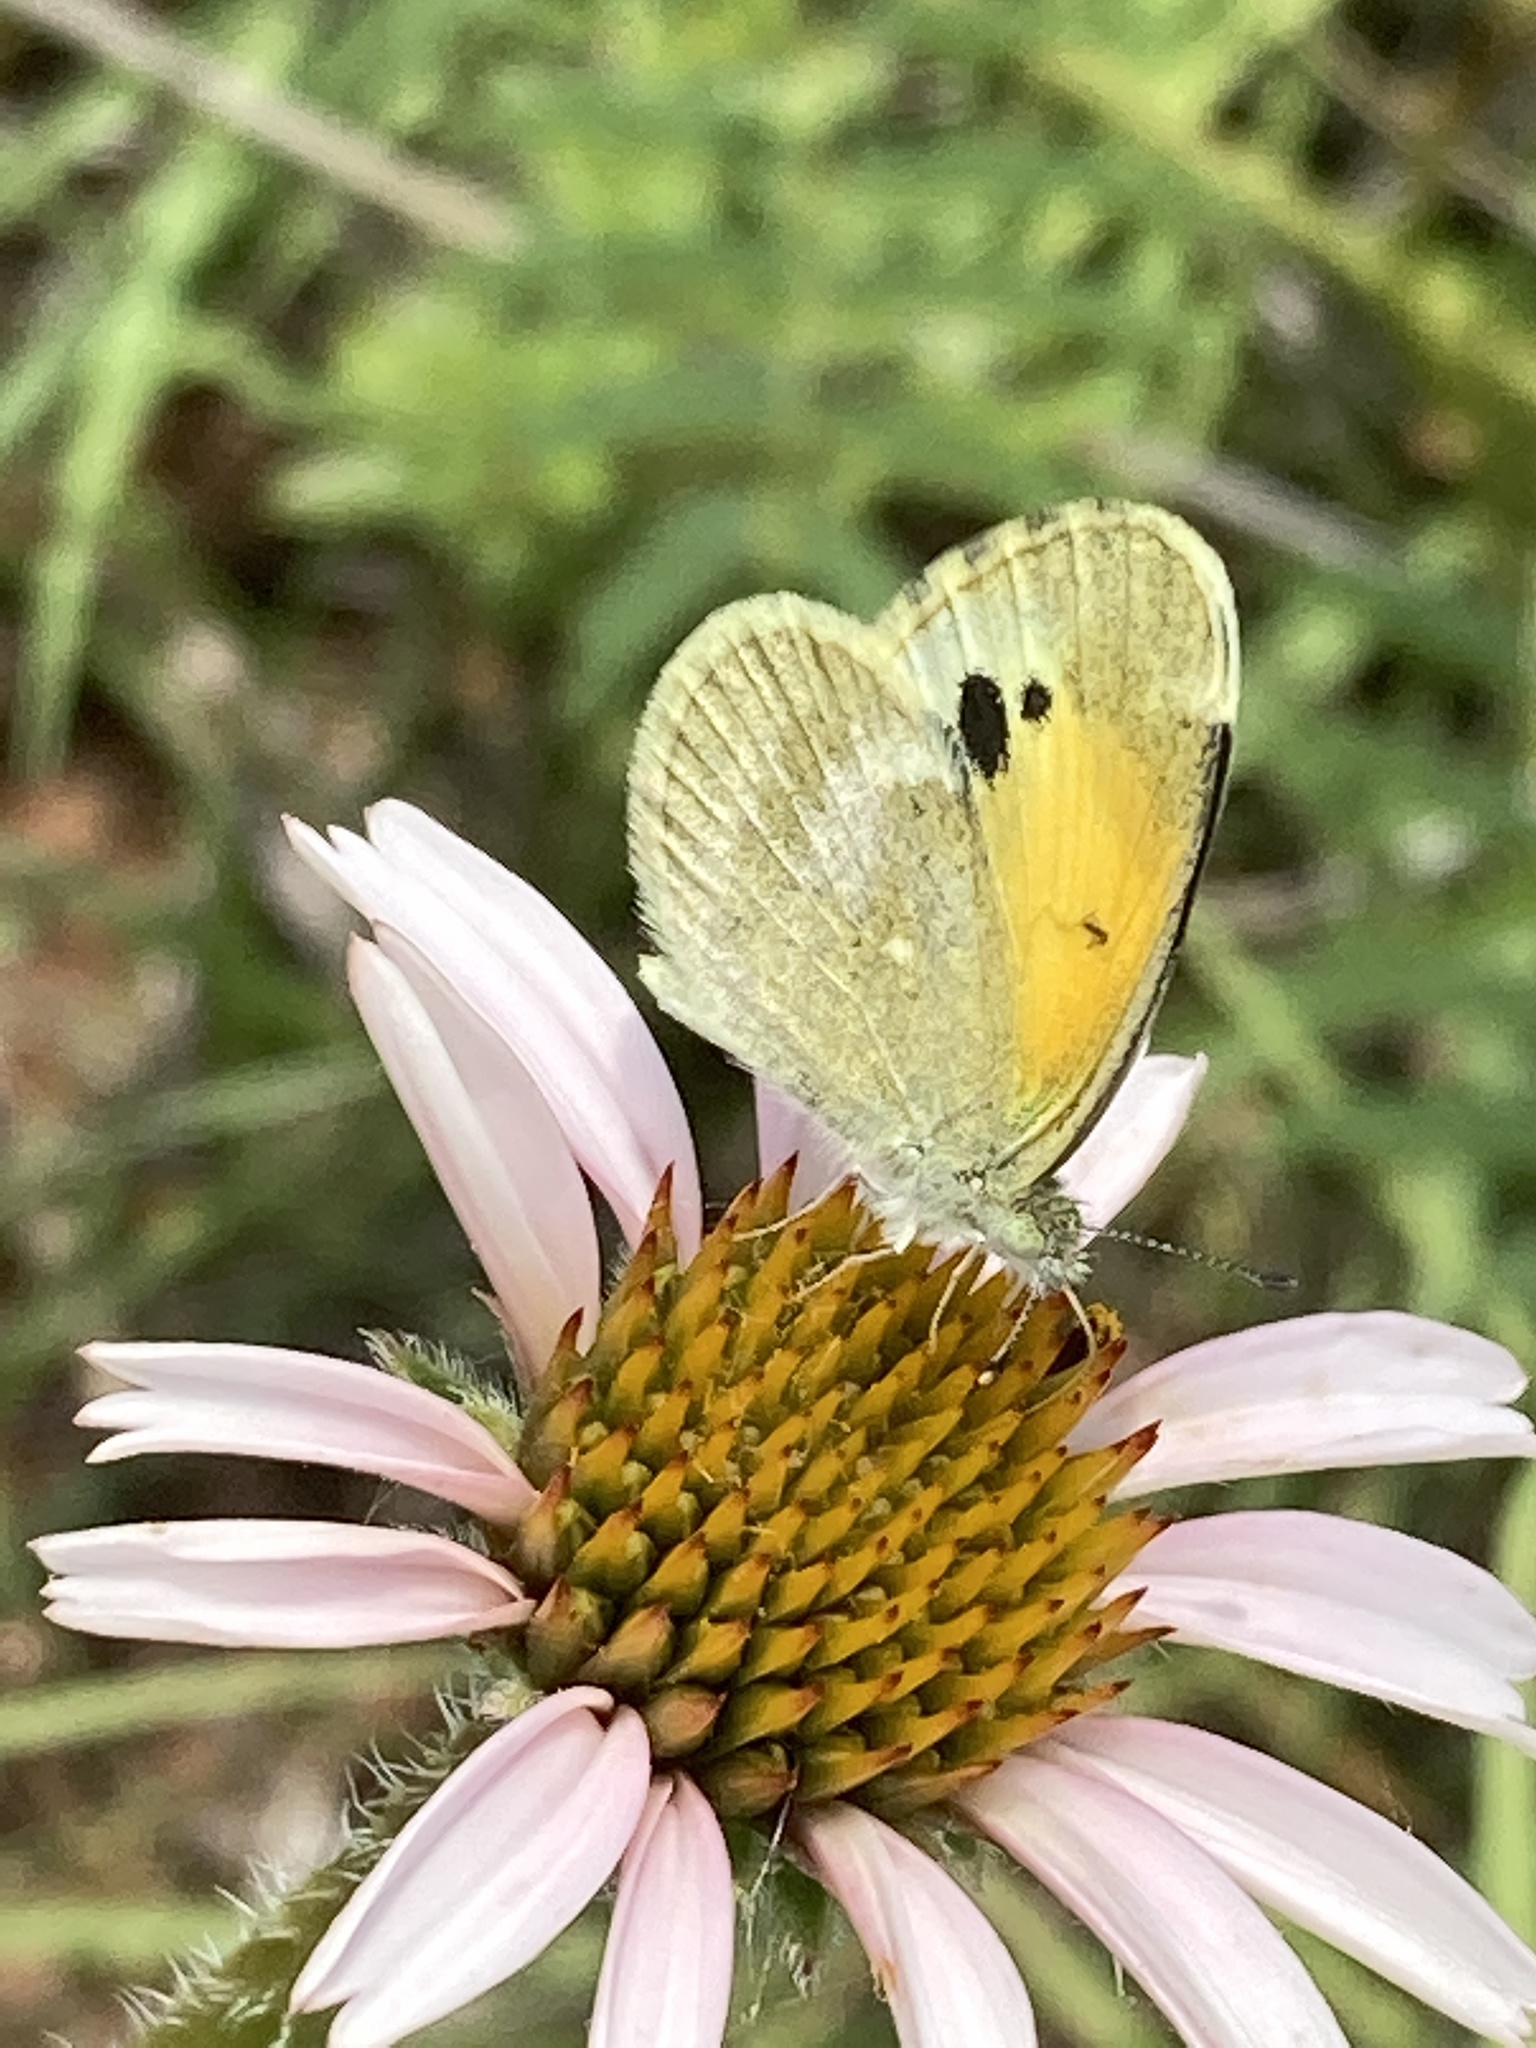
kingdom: Animalia
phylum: Arthropoda
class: Insecta
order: Lepidoptera
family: Pieridae
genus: Nathalis
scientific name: Nathalis iole
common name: Dainty sulphur
